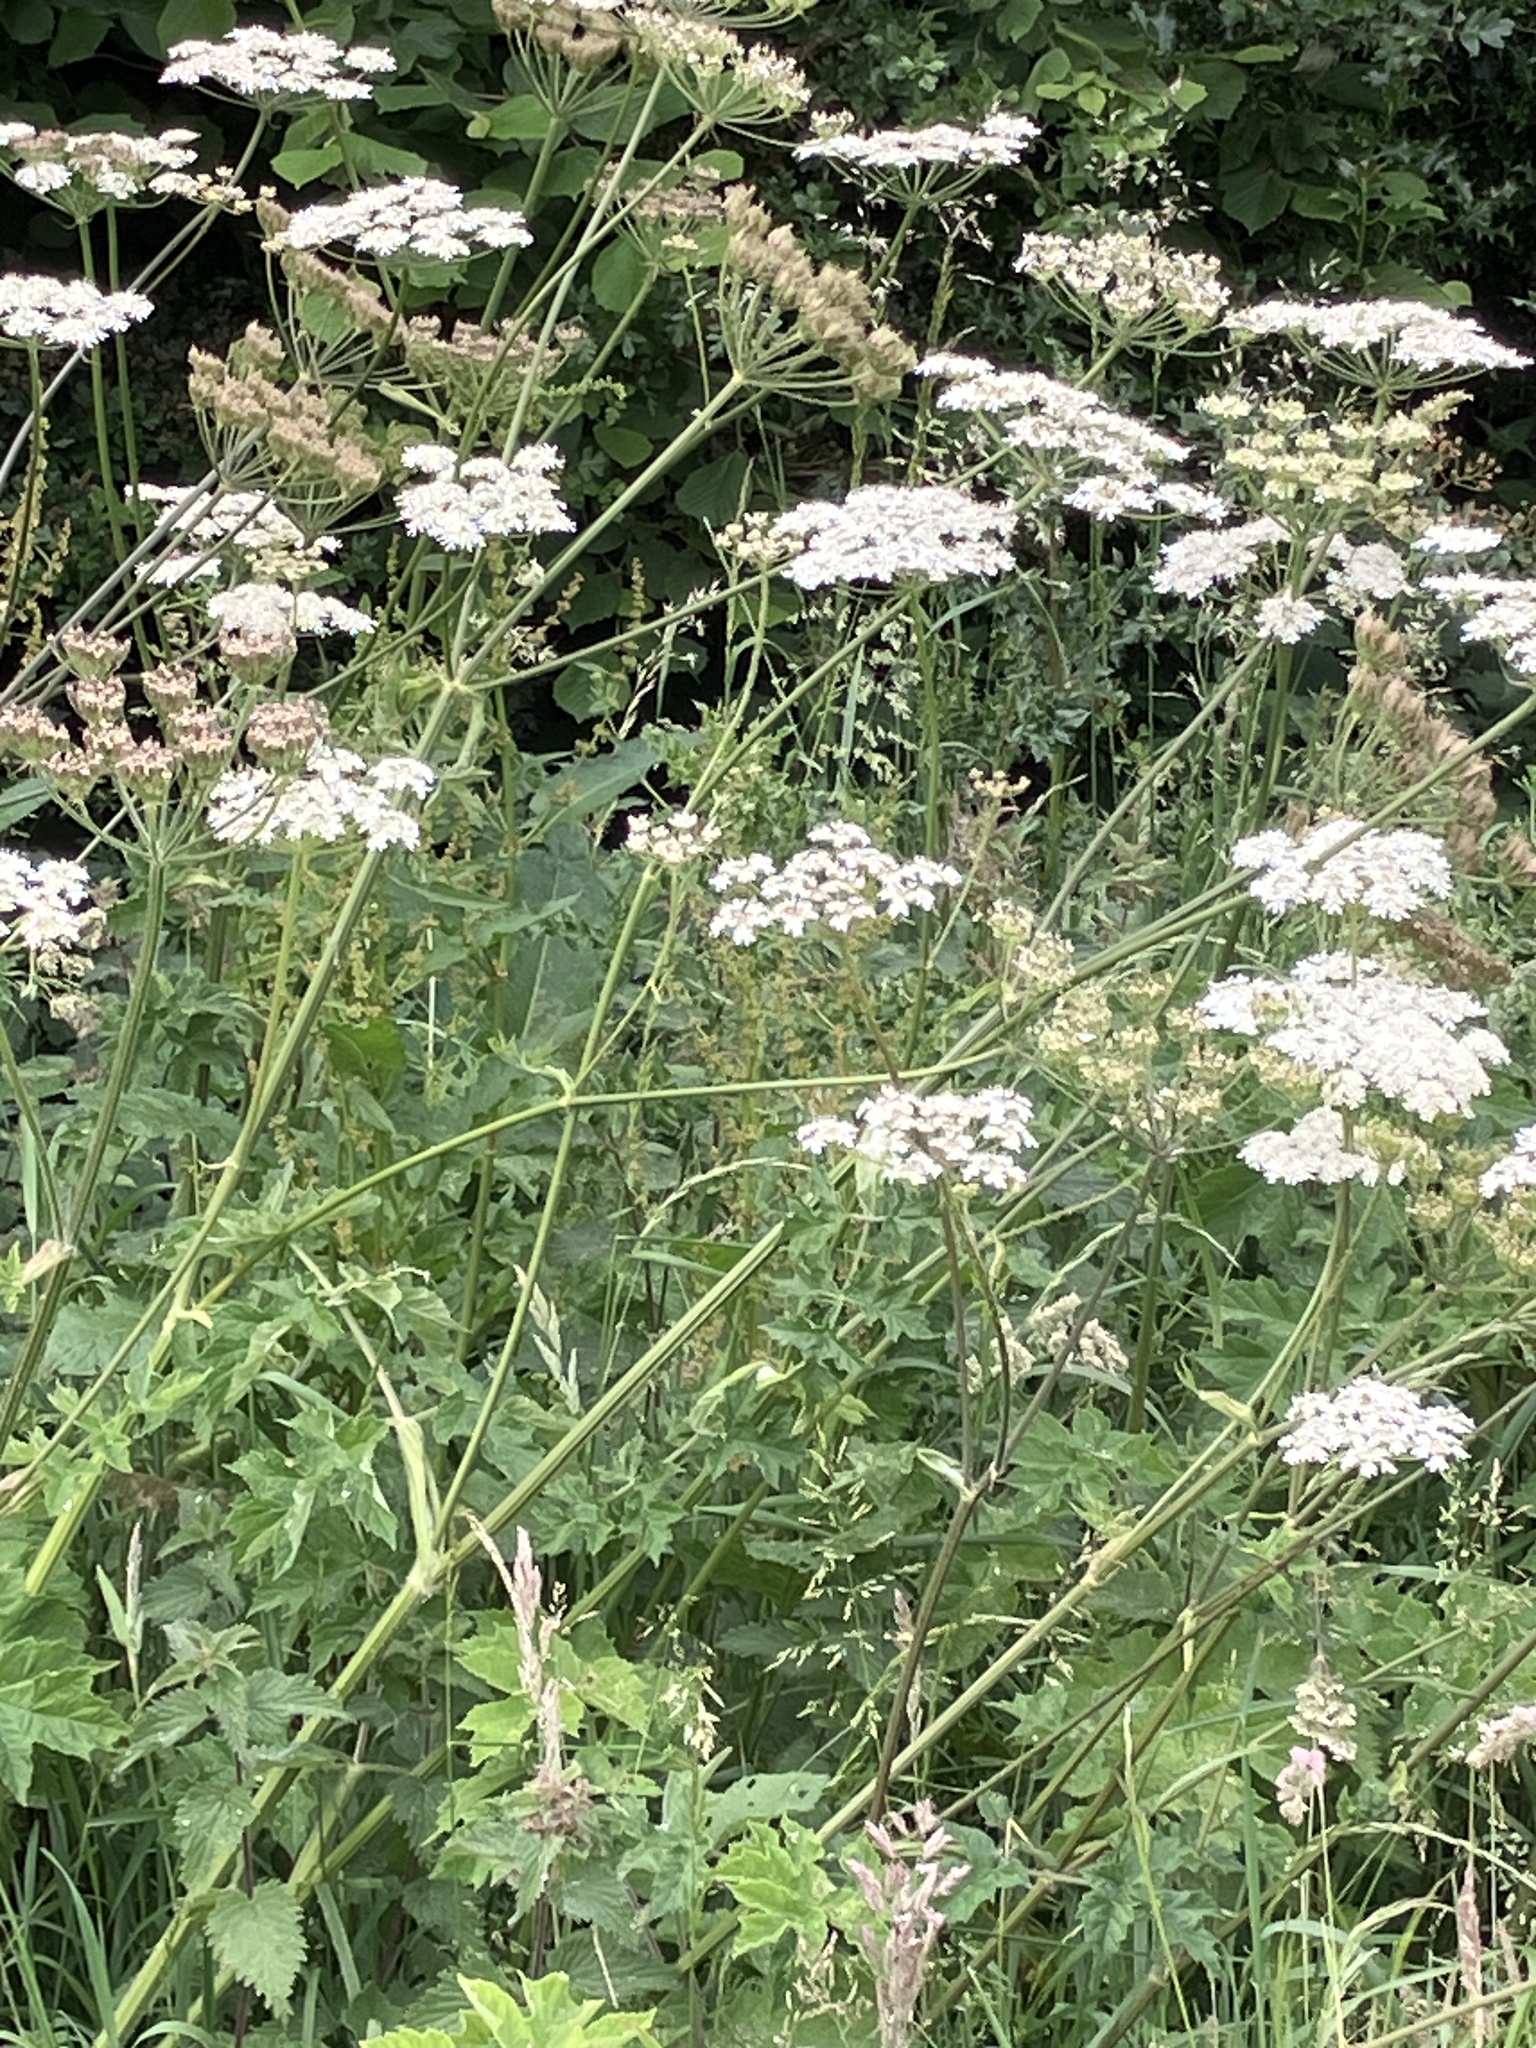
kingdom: Plantae
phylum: Tracheophyta
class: Magnoliopsida
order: Apiales
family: Apiaceae
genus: Heracleum
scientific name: Heracleum sphondylium
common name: Hogweed
